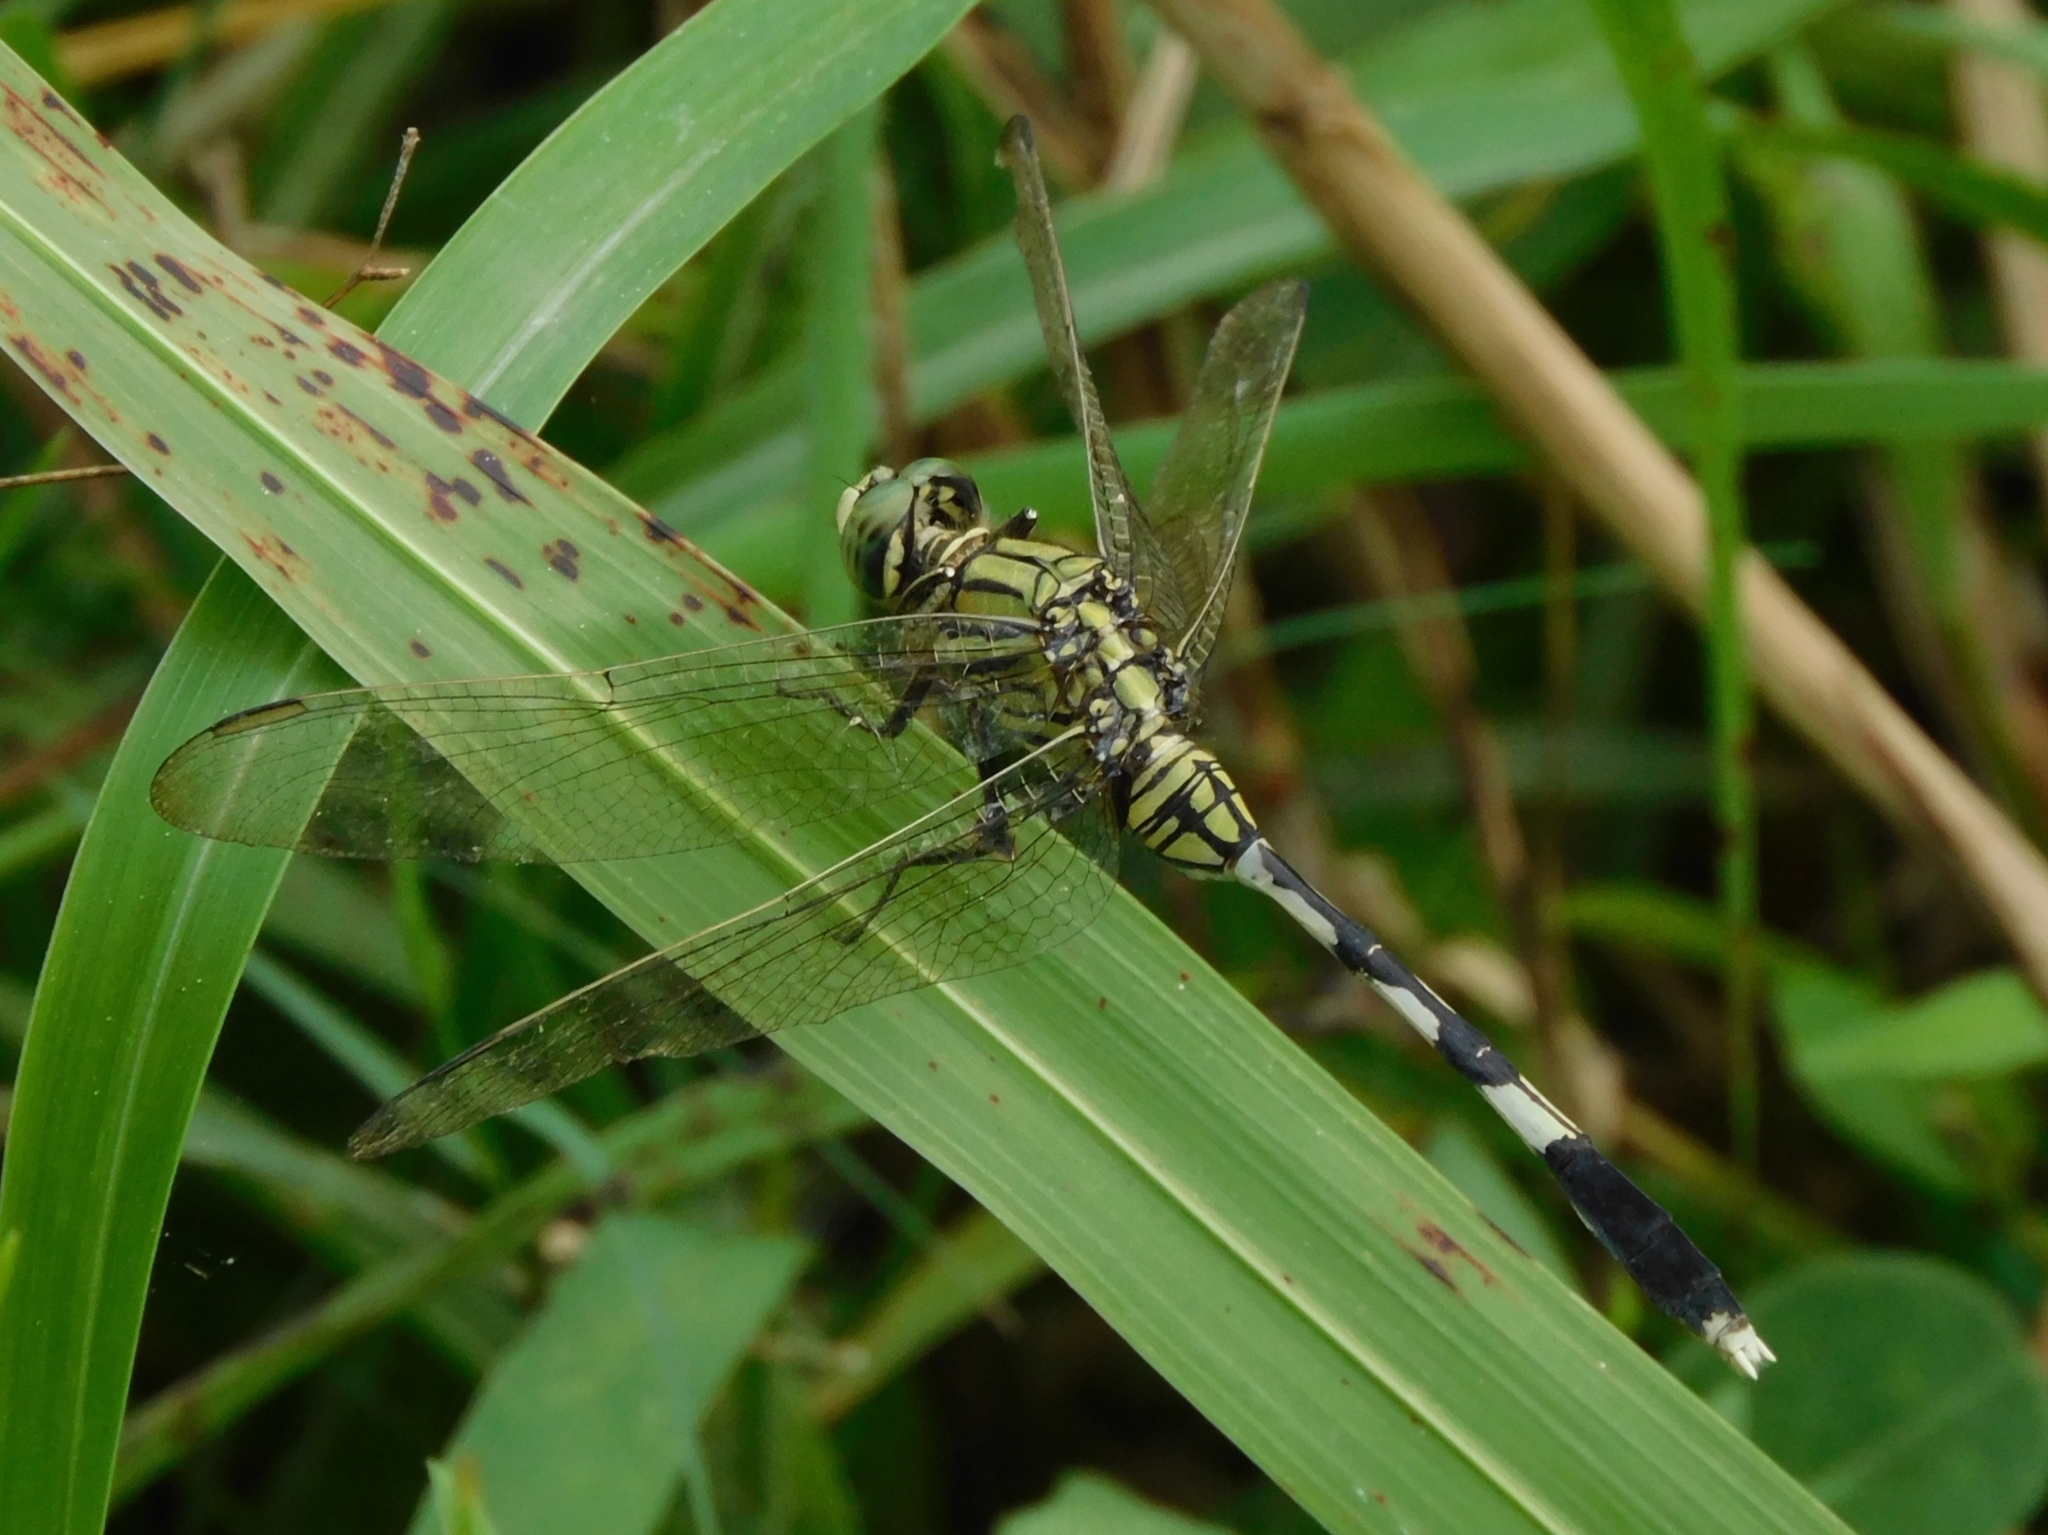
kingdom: Animalia
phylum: Arthropoda
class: Insecta
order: Odonata
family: Libellulidae
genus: Orthetrum
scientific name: Orthetrum sabina
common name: Slender skimmer
